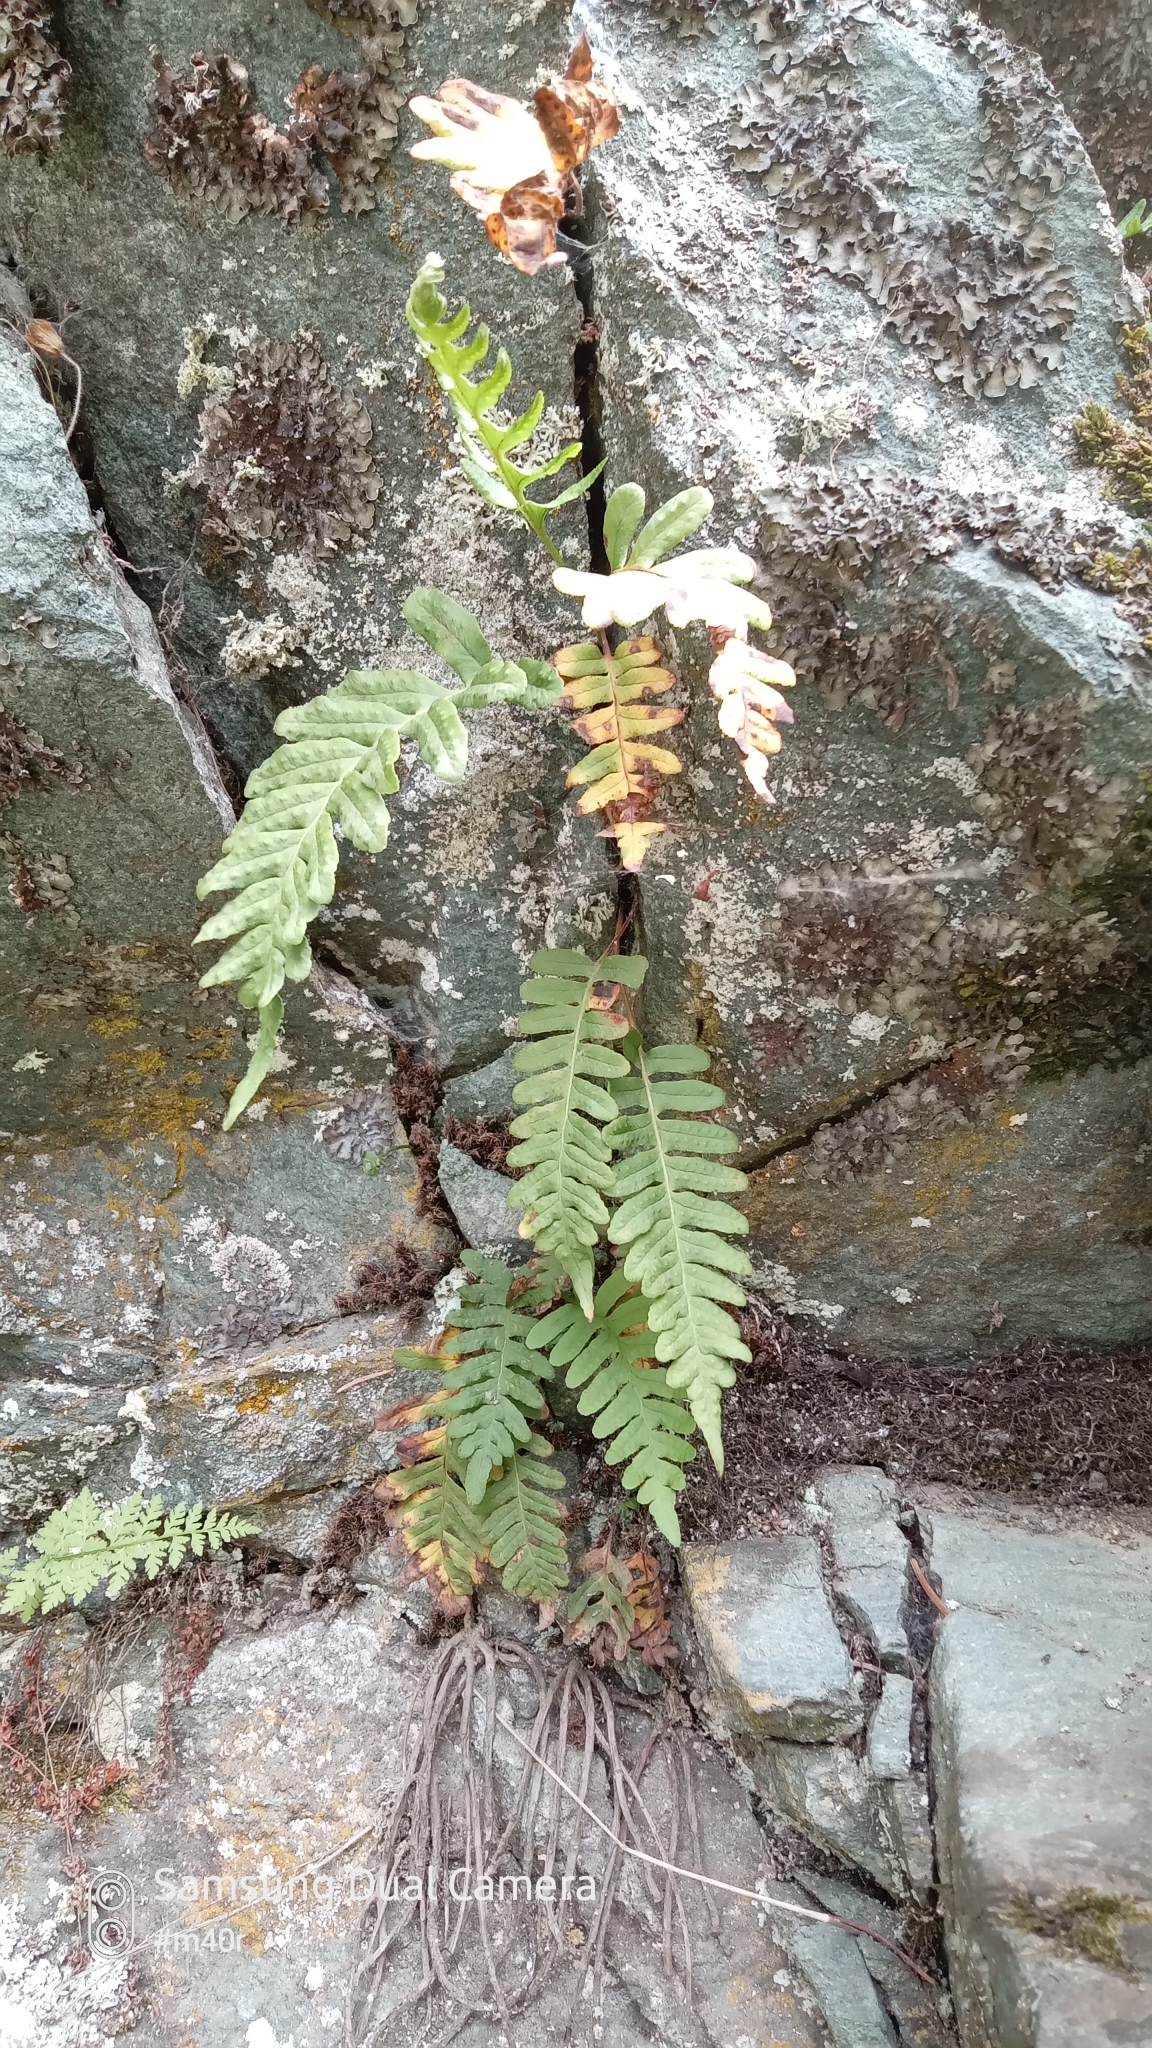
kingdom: Plantae
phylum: Tracheophyta
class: Polypodiopsida
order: Polypodiales
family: Polypodiaceae
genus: Polypodium
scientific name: Polypodium vulgare
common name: Common polypody
